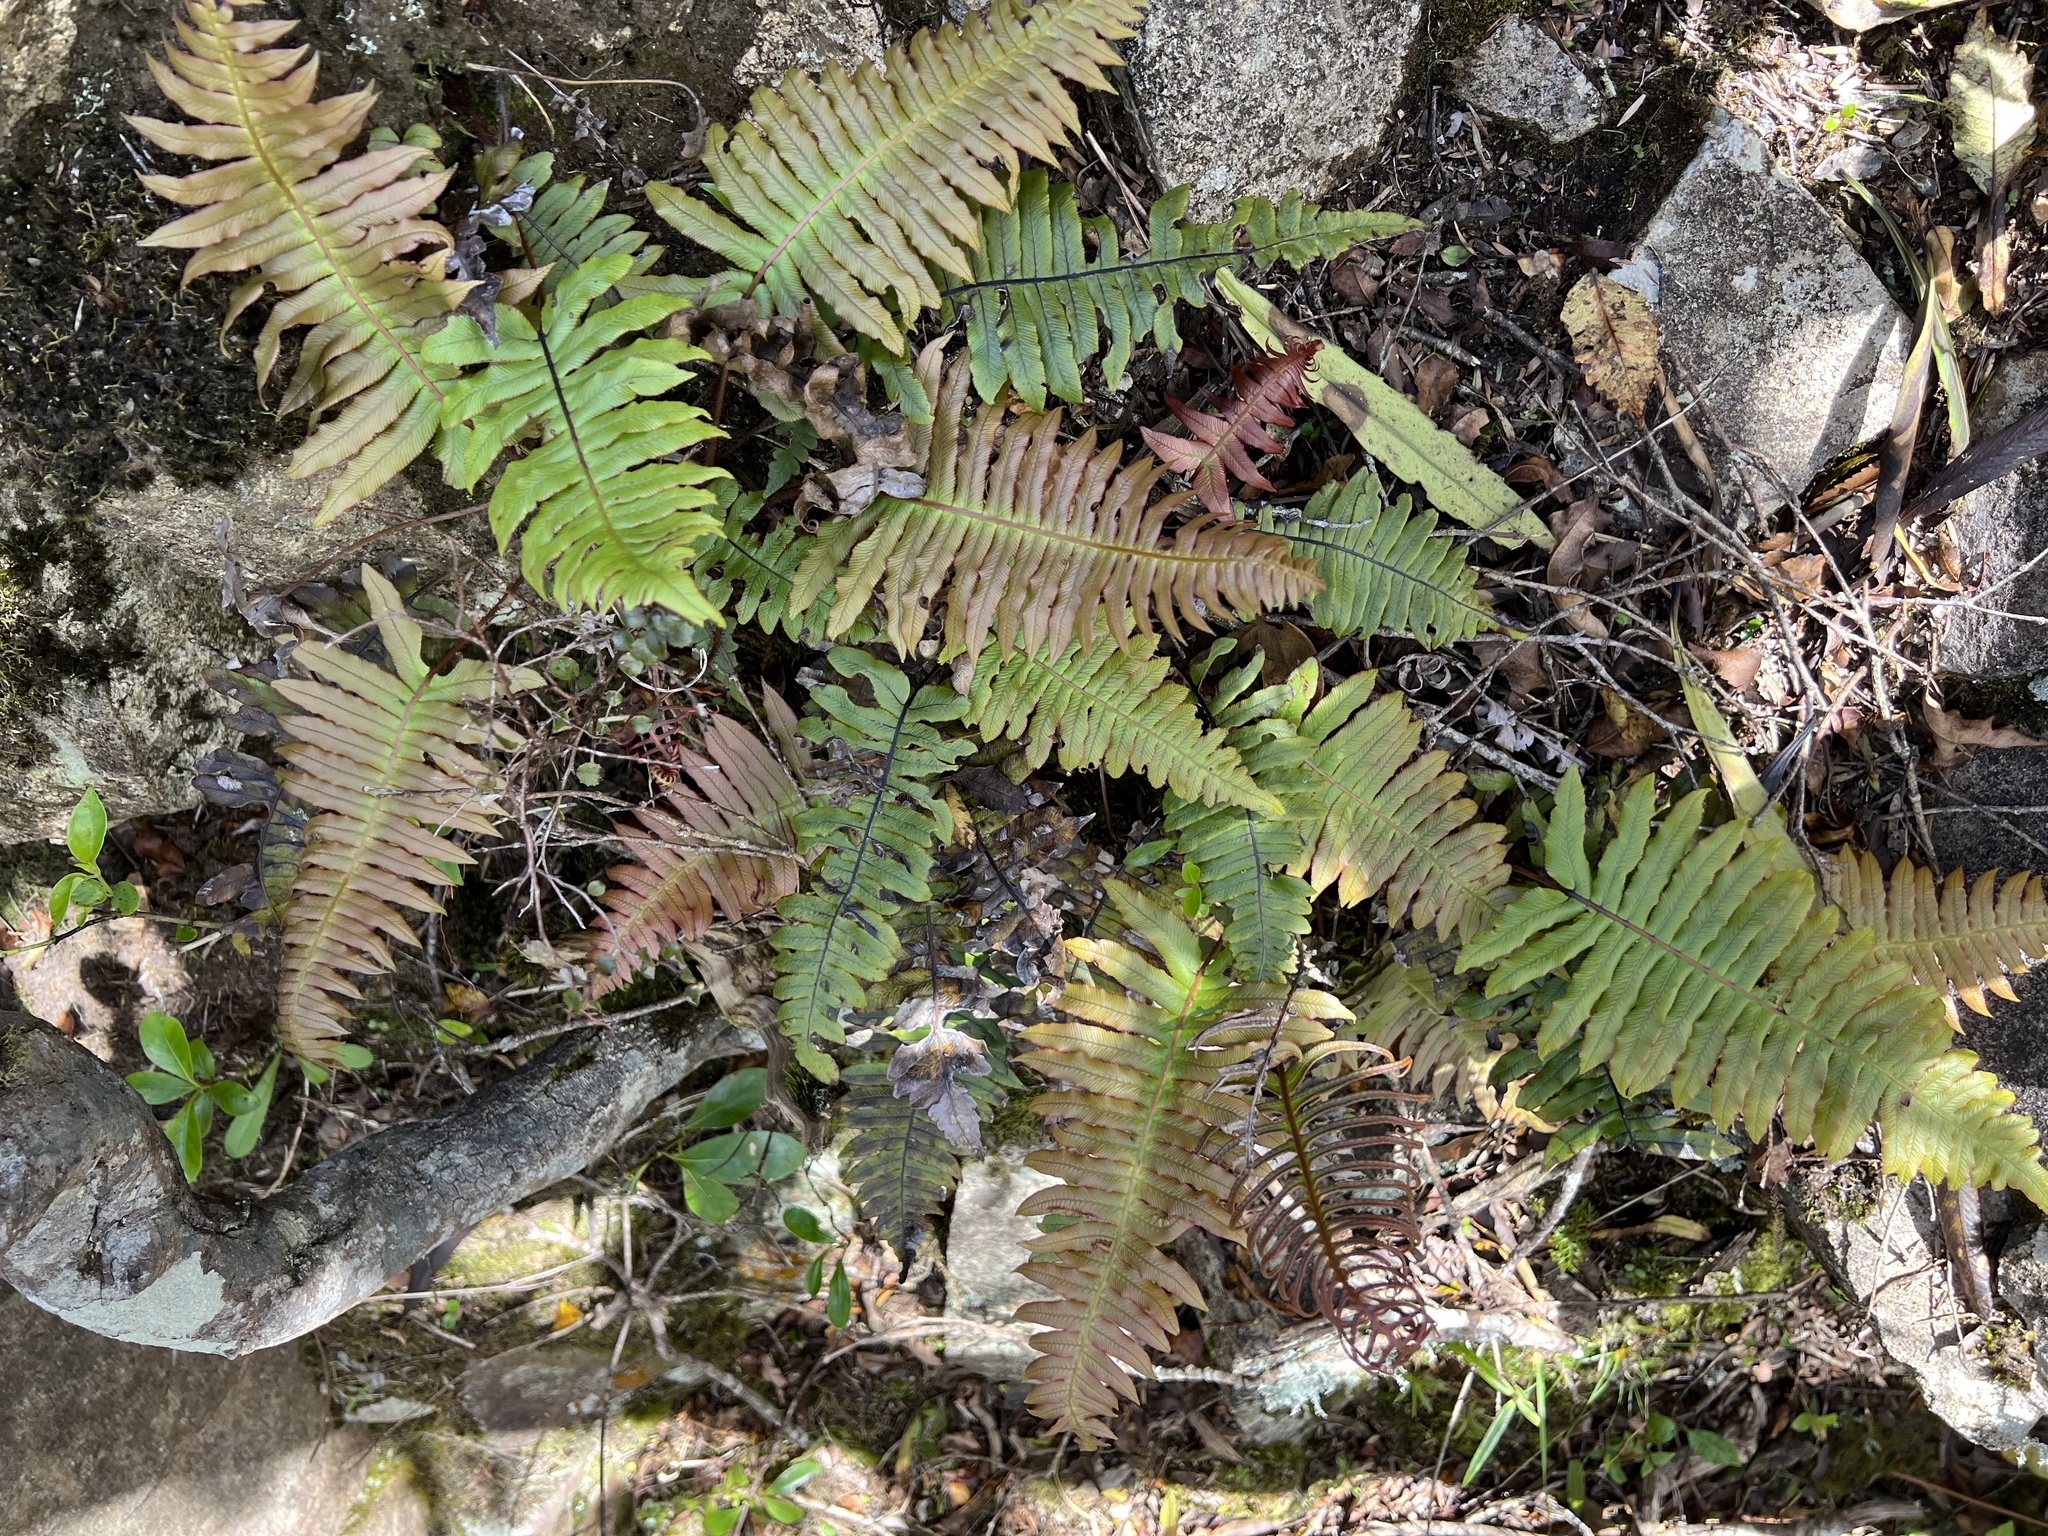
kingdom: Plantae
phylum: Tracheophyta
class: Polypodiopsida
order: Polypodiales
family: Blechnaceae
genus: Cranfillia
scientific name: Cranfillia deltoides
